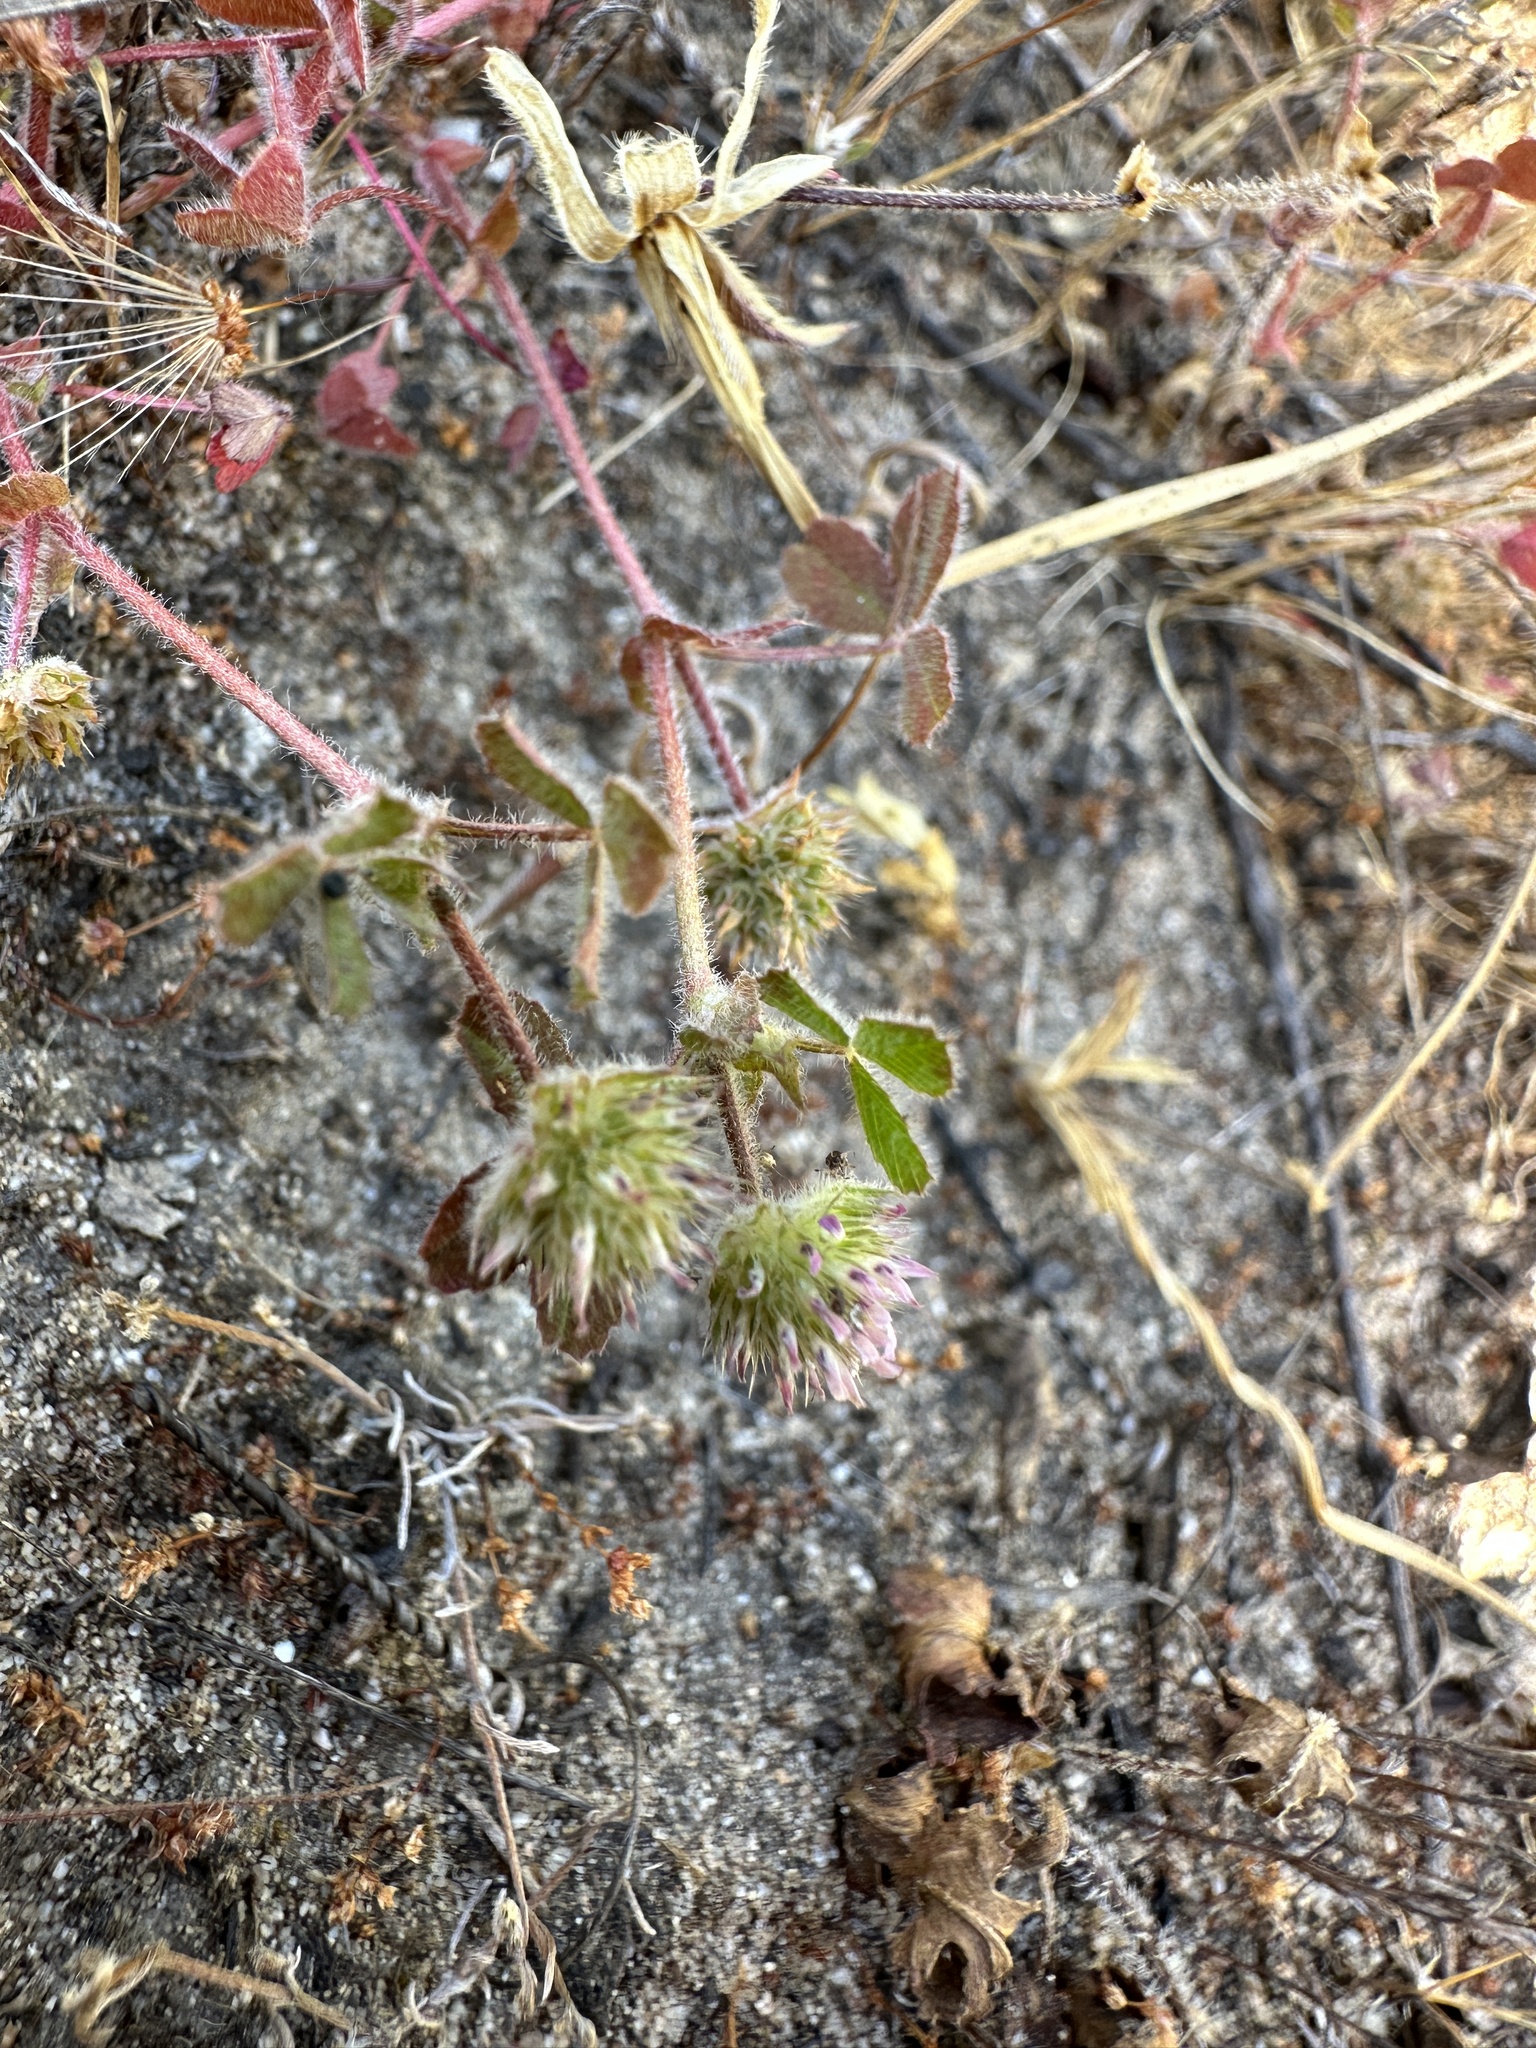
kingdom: Plantae
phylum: Tracheophyta
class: Magnoliopsida
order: Fabales
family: Fabaceae
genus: Trifolium
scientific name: Trifolium microcephalum
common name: Maiden clover
